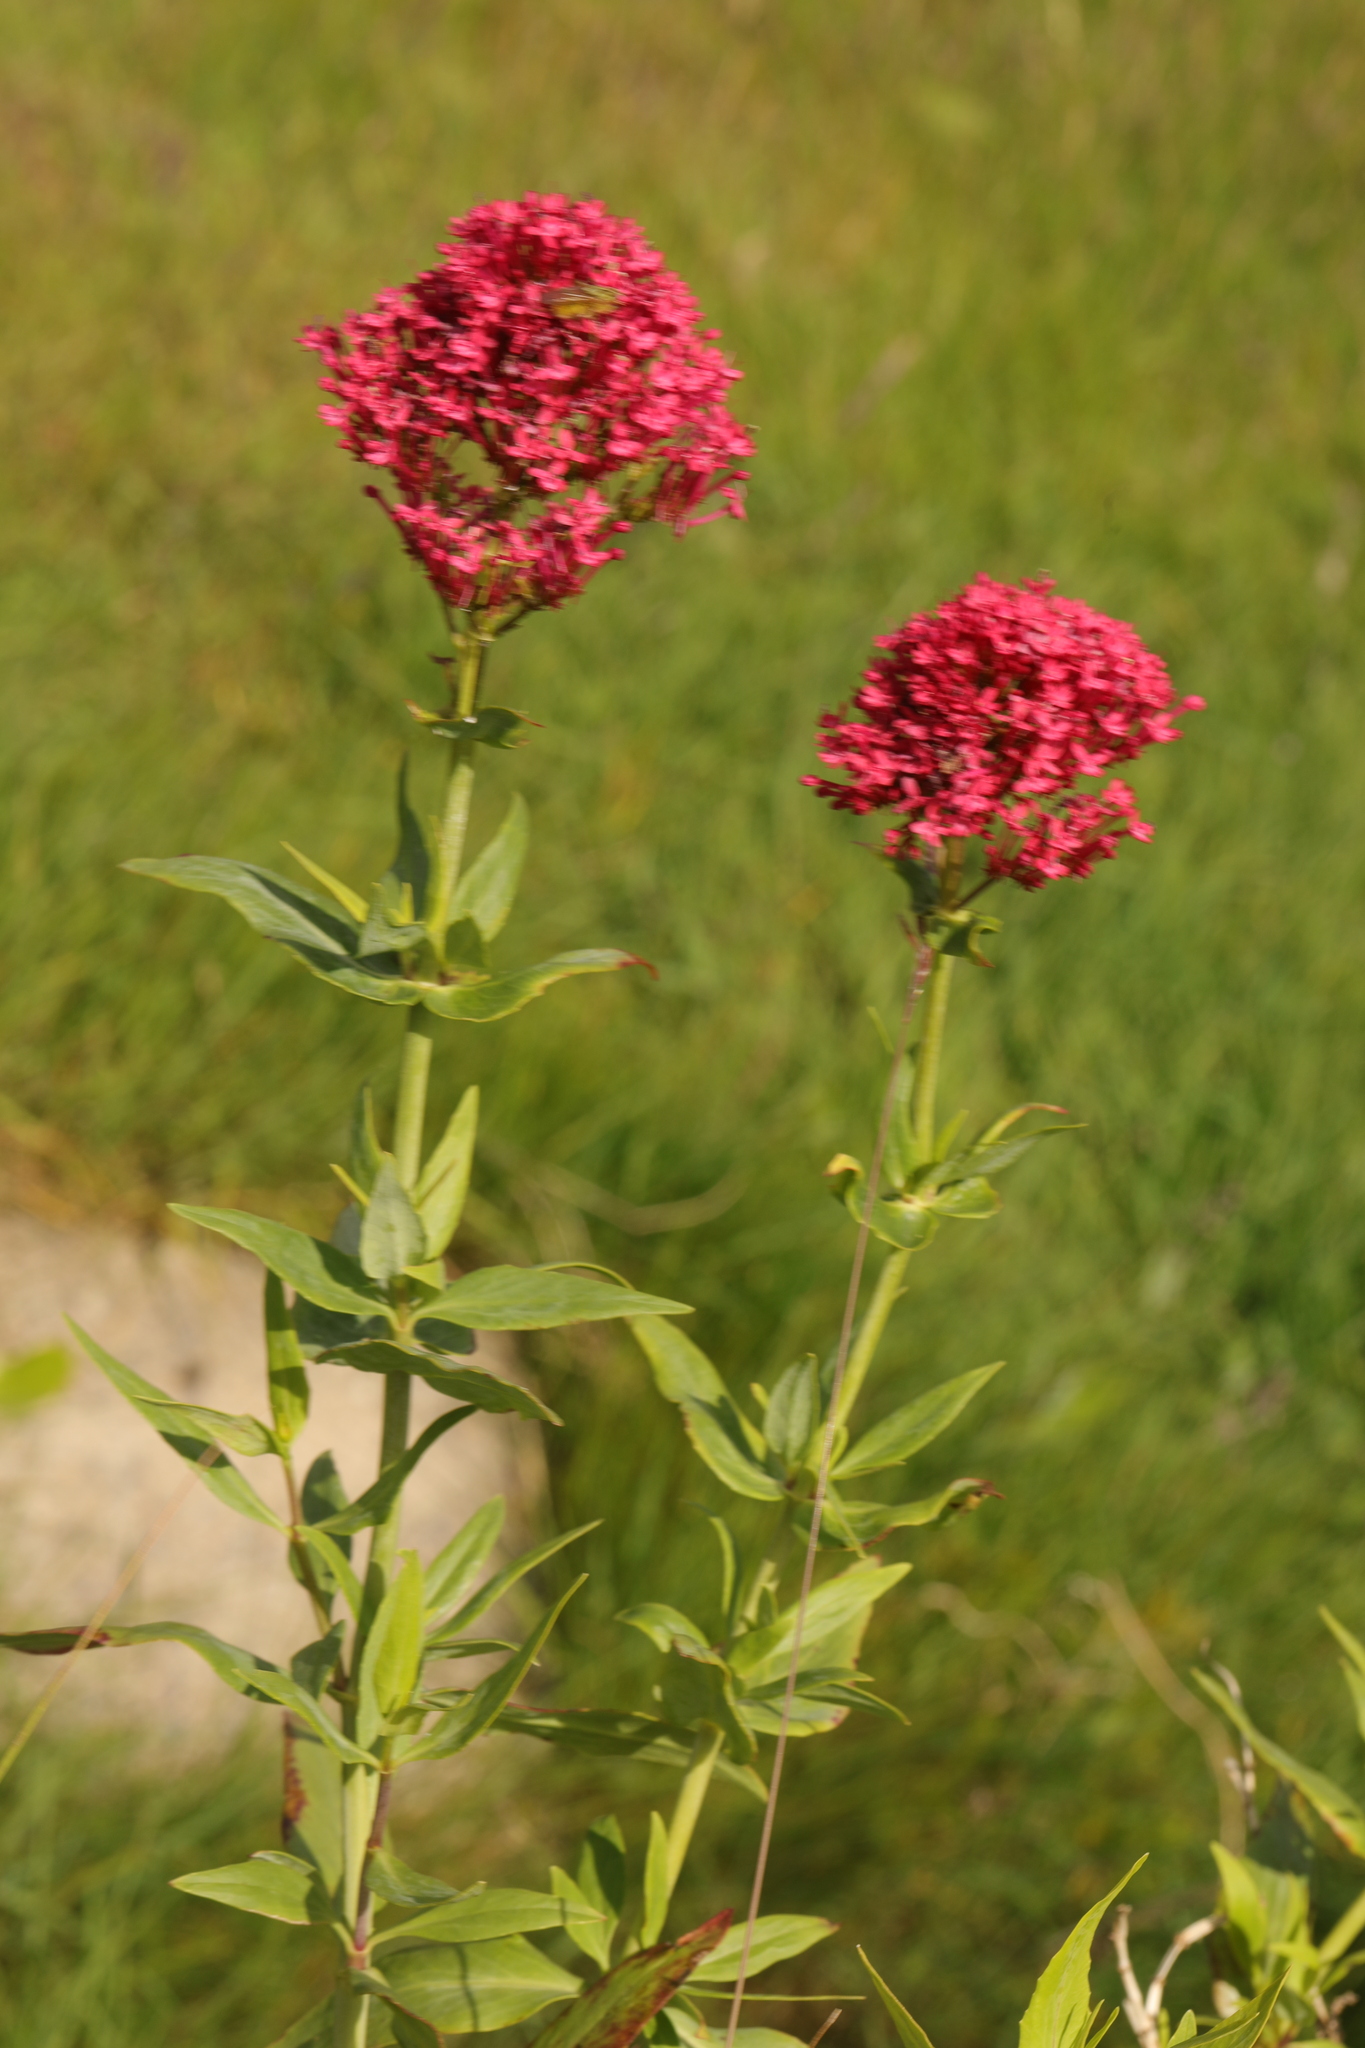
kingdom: Plantae
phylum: Tracheophyta
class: Magnoliopsida
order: Dipsacales
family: Caprifoliaceae
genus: Centranthus
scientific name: Centranthus ruber
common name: Red valerian
